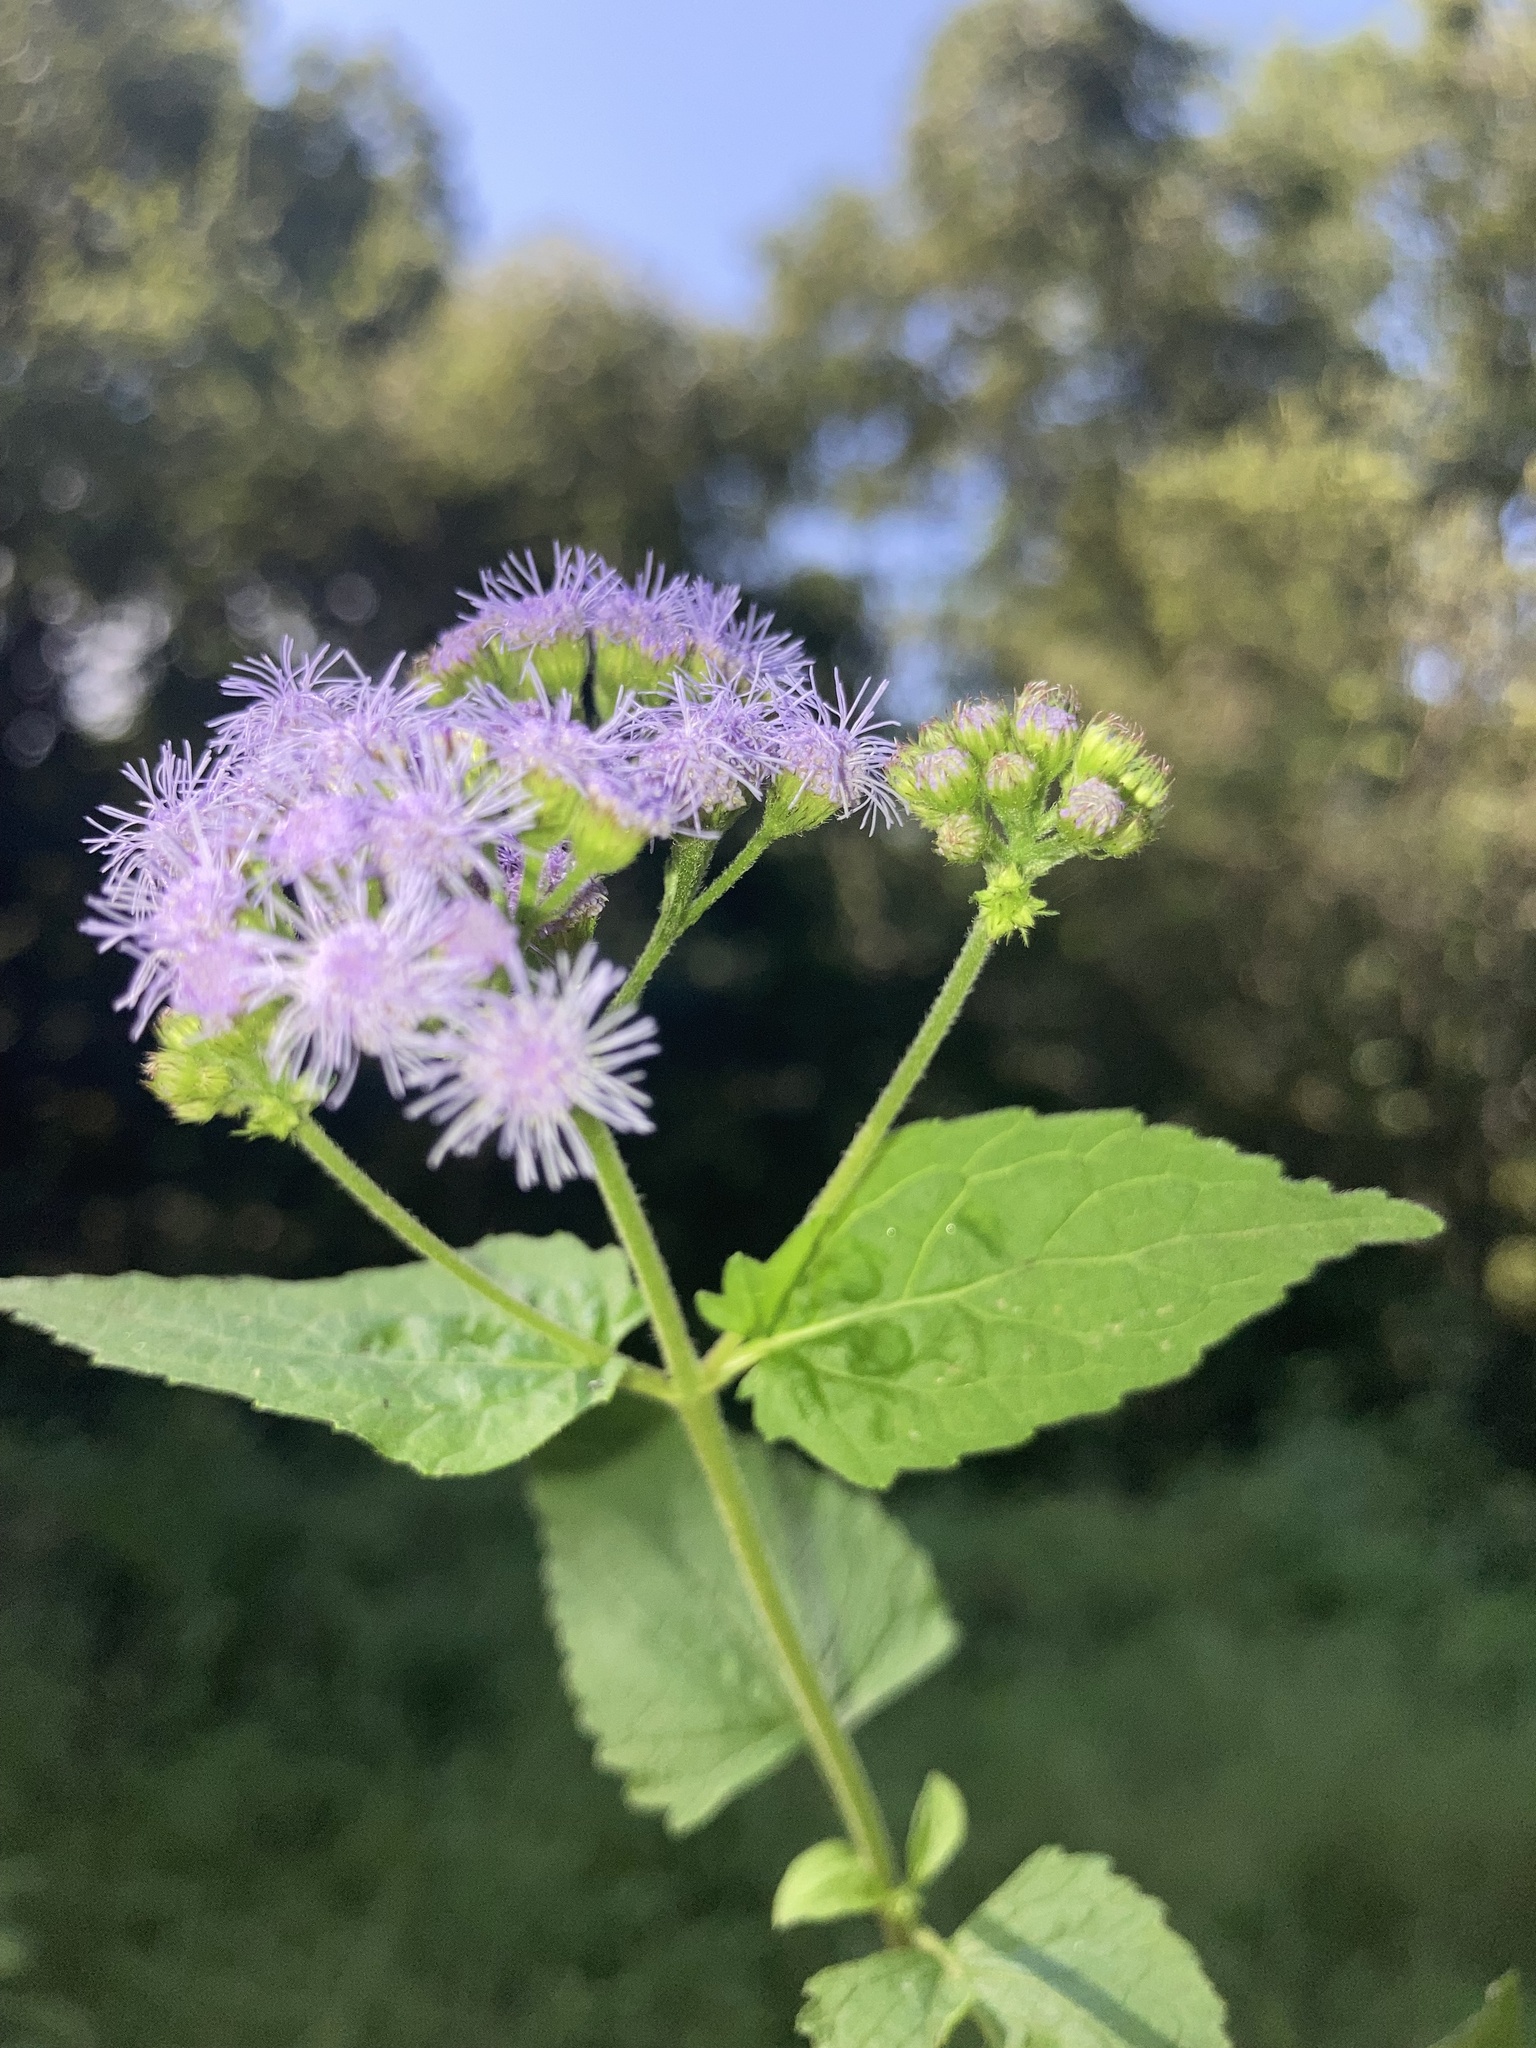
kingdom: Plantae
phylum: Tracheophyta
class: Magnoliopsida
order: Asterales
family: Asteraceae
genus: Conoclinium
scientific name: Conoclinium coelestinum
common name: Blue mistflower
